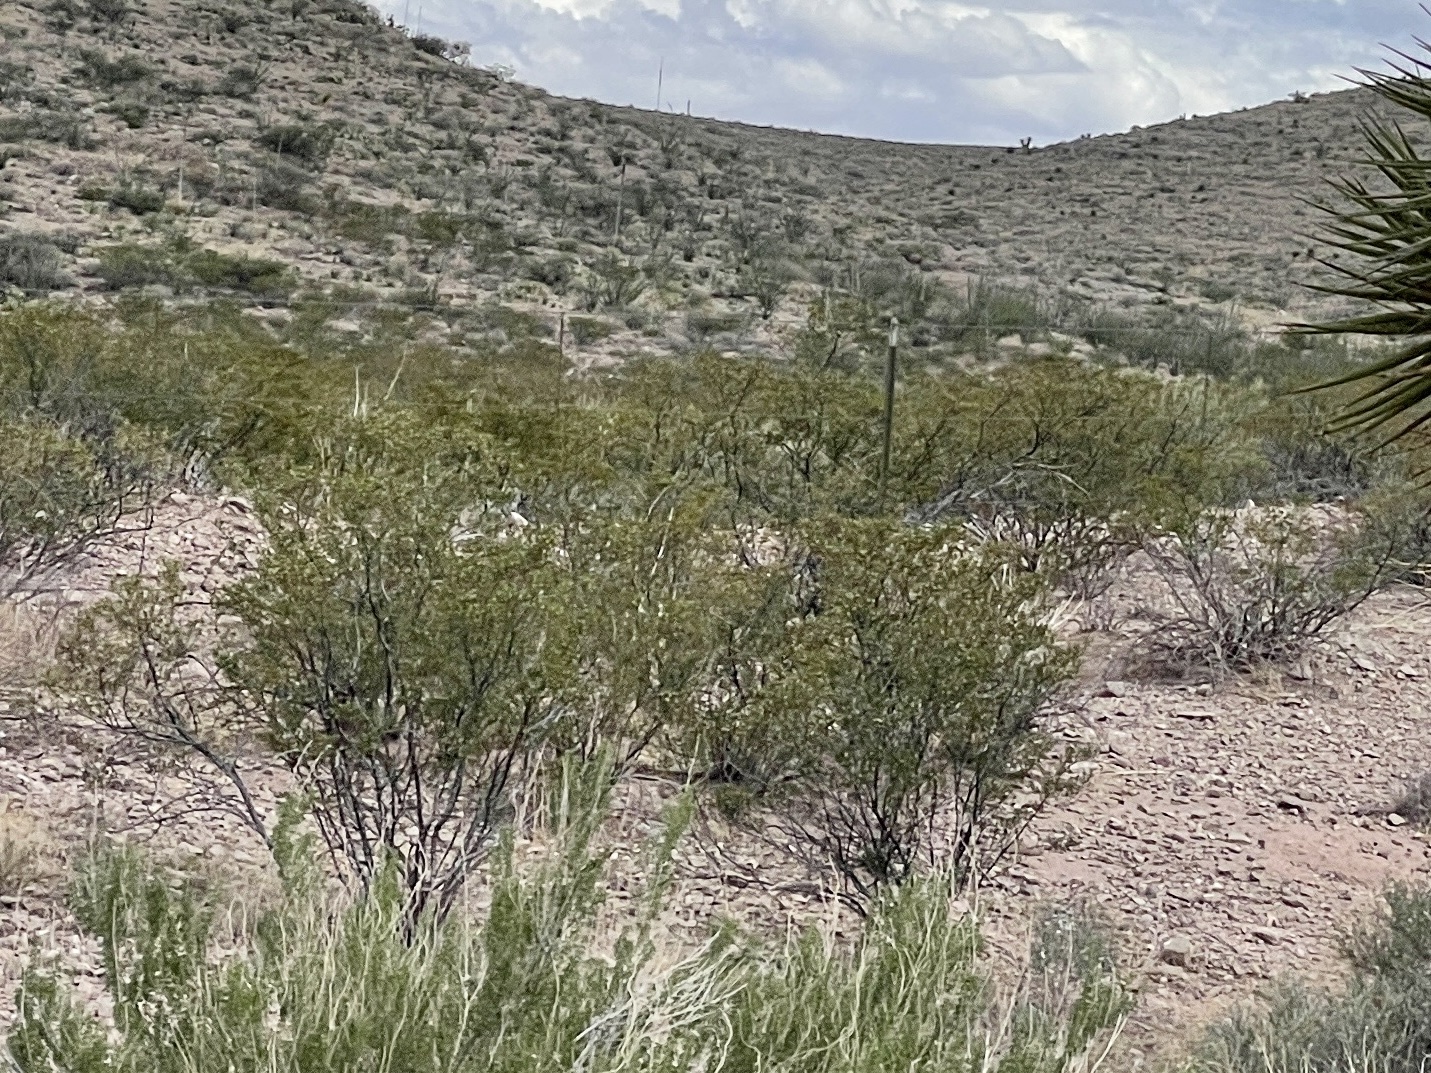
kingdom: Plantae
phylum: Tracheophyta
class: Magnoliopsida
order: Zygophyllales
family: Zygophyllaceae
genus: Larrea
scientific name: Larrea tridentata
